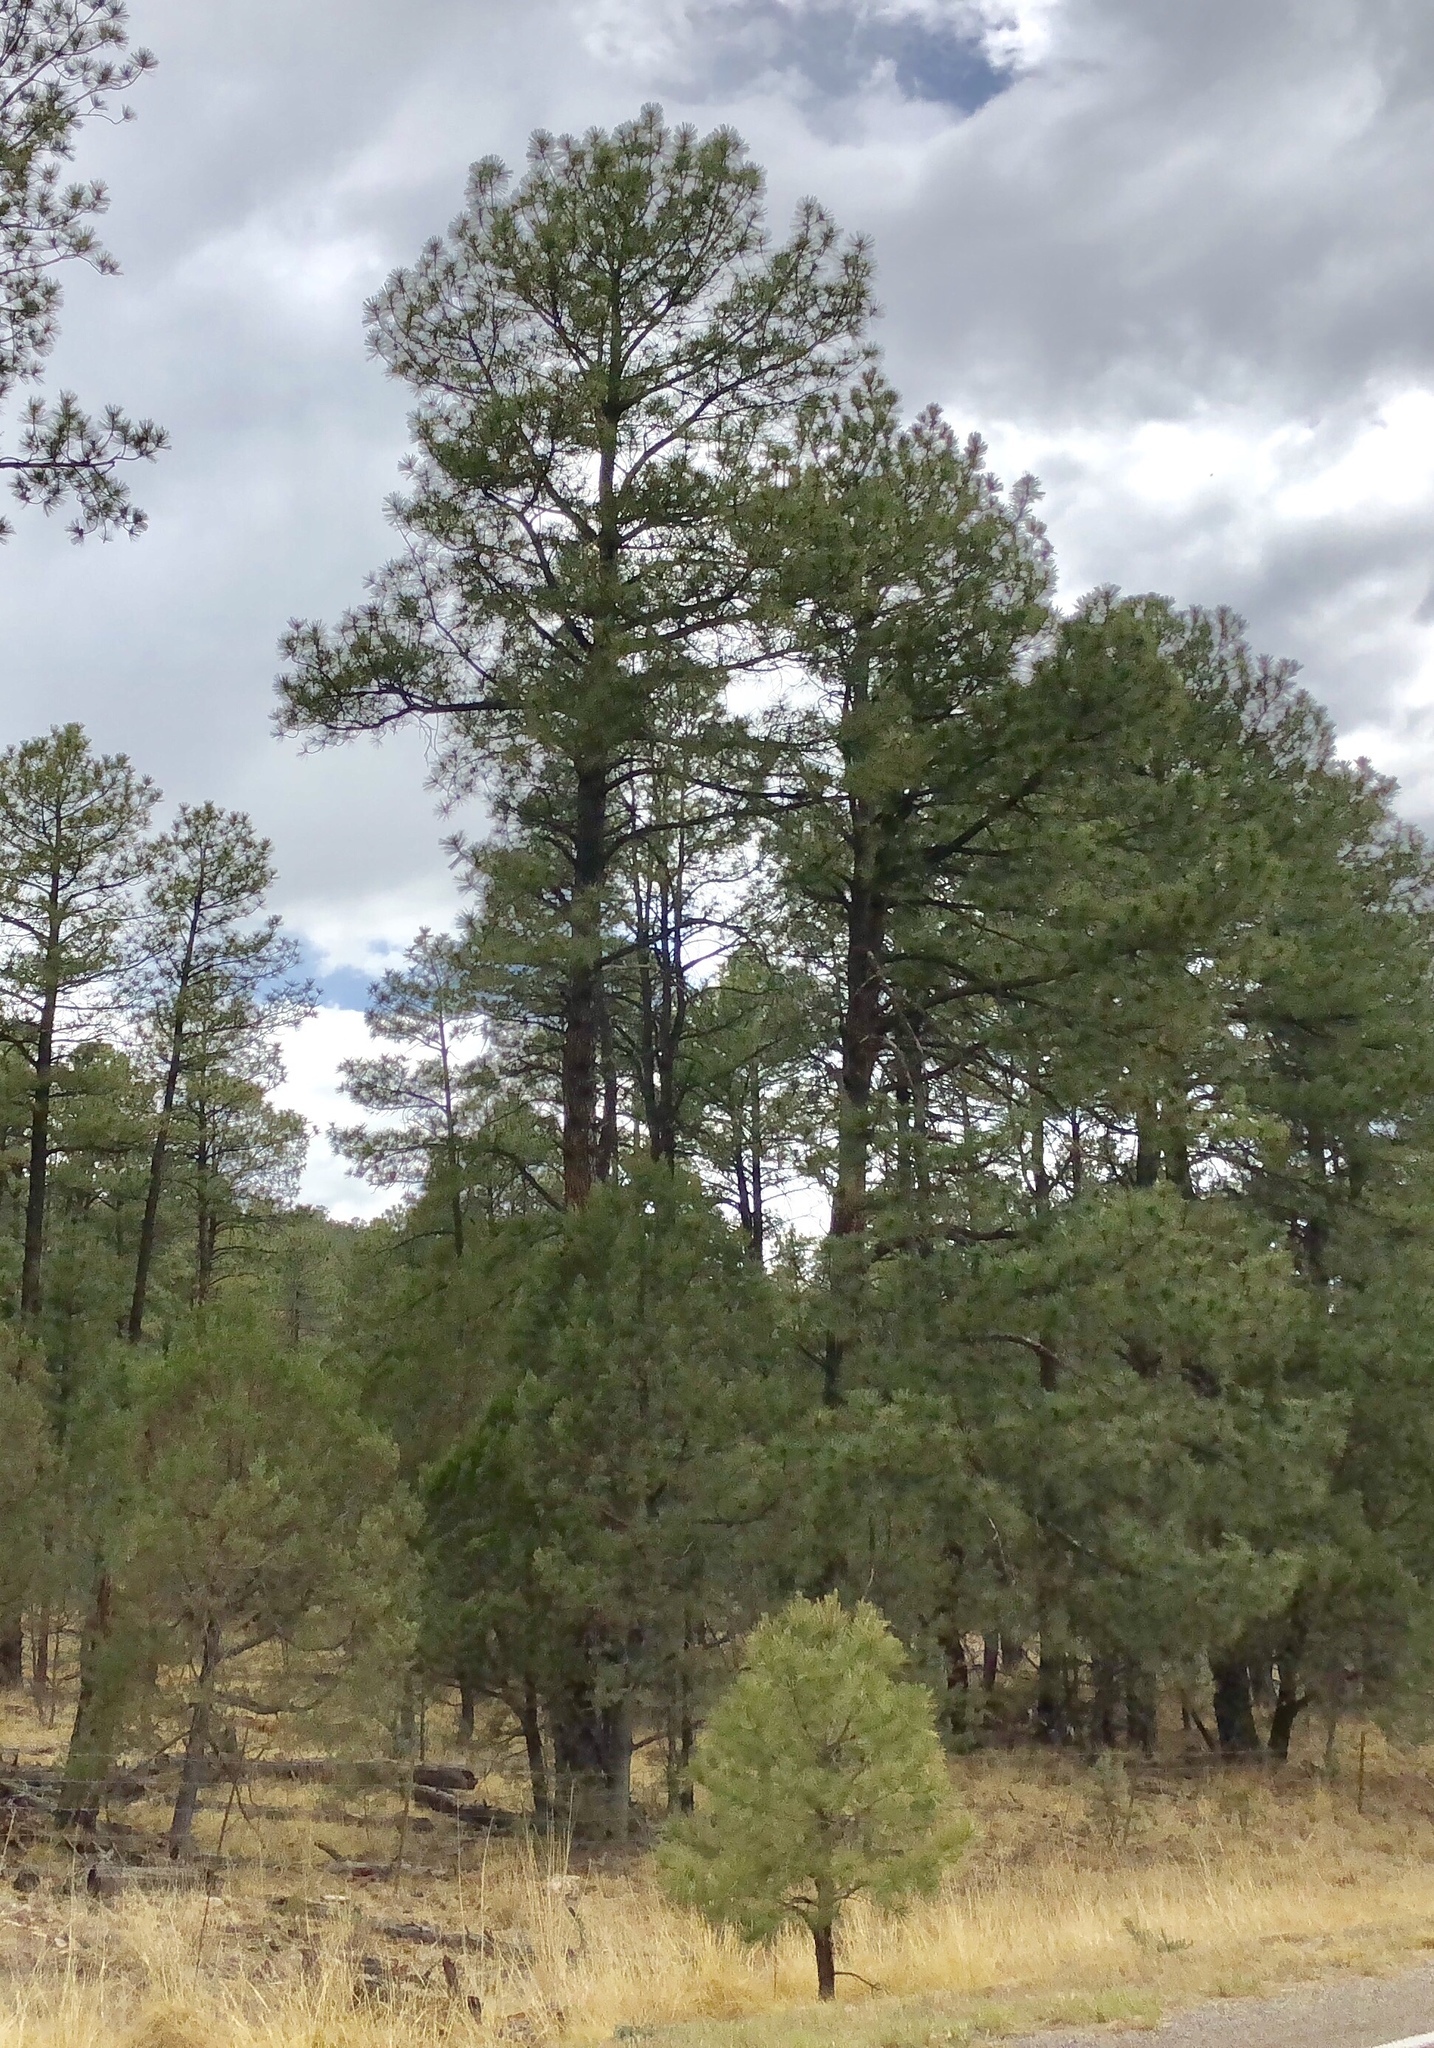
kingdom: Plantae
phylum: Tracheophyta
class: Pinopsida
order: Pinales
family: Pinaceae
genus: Pinus
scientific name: Pinus ponderosa
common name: Western yellow-pine
